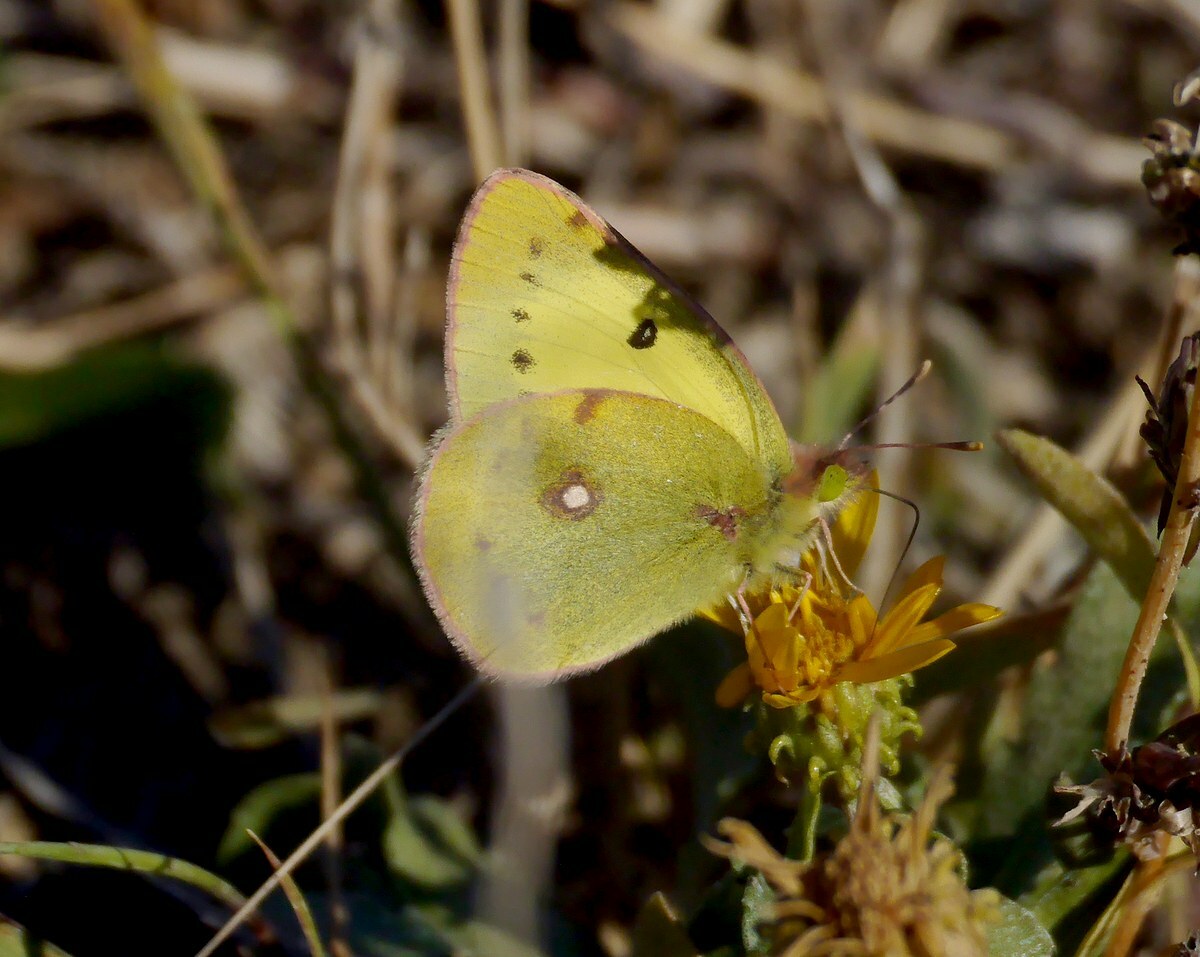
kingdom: Animalia
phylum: Arthropoda
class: Insecta
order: Lepidoptera
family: Pieridae
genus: Colias
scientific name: Colias erate
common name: Eastern pale clouded yellow
